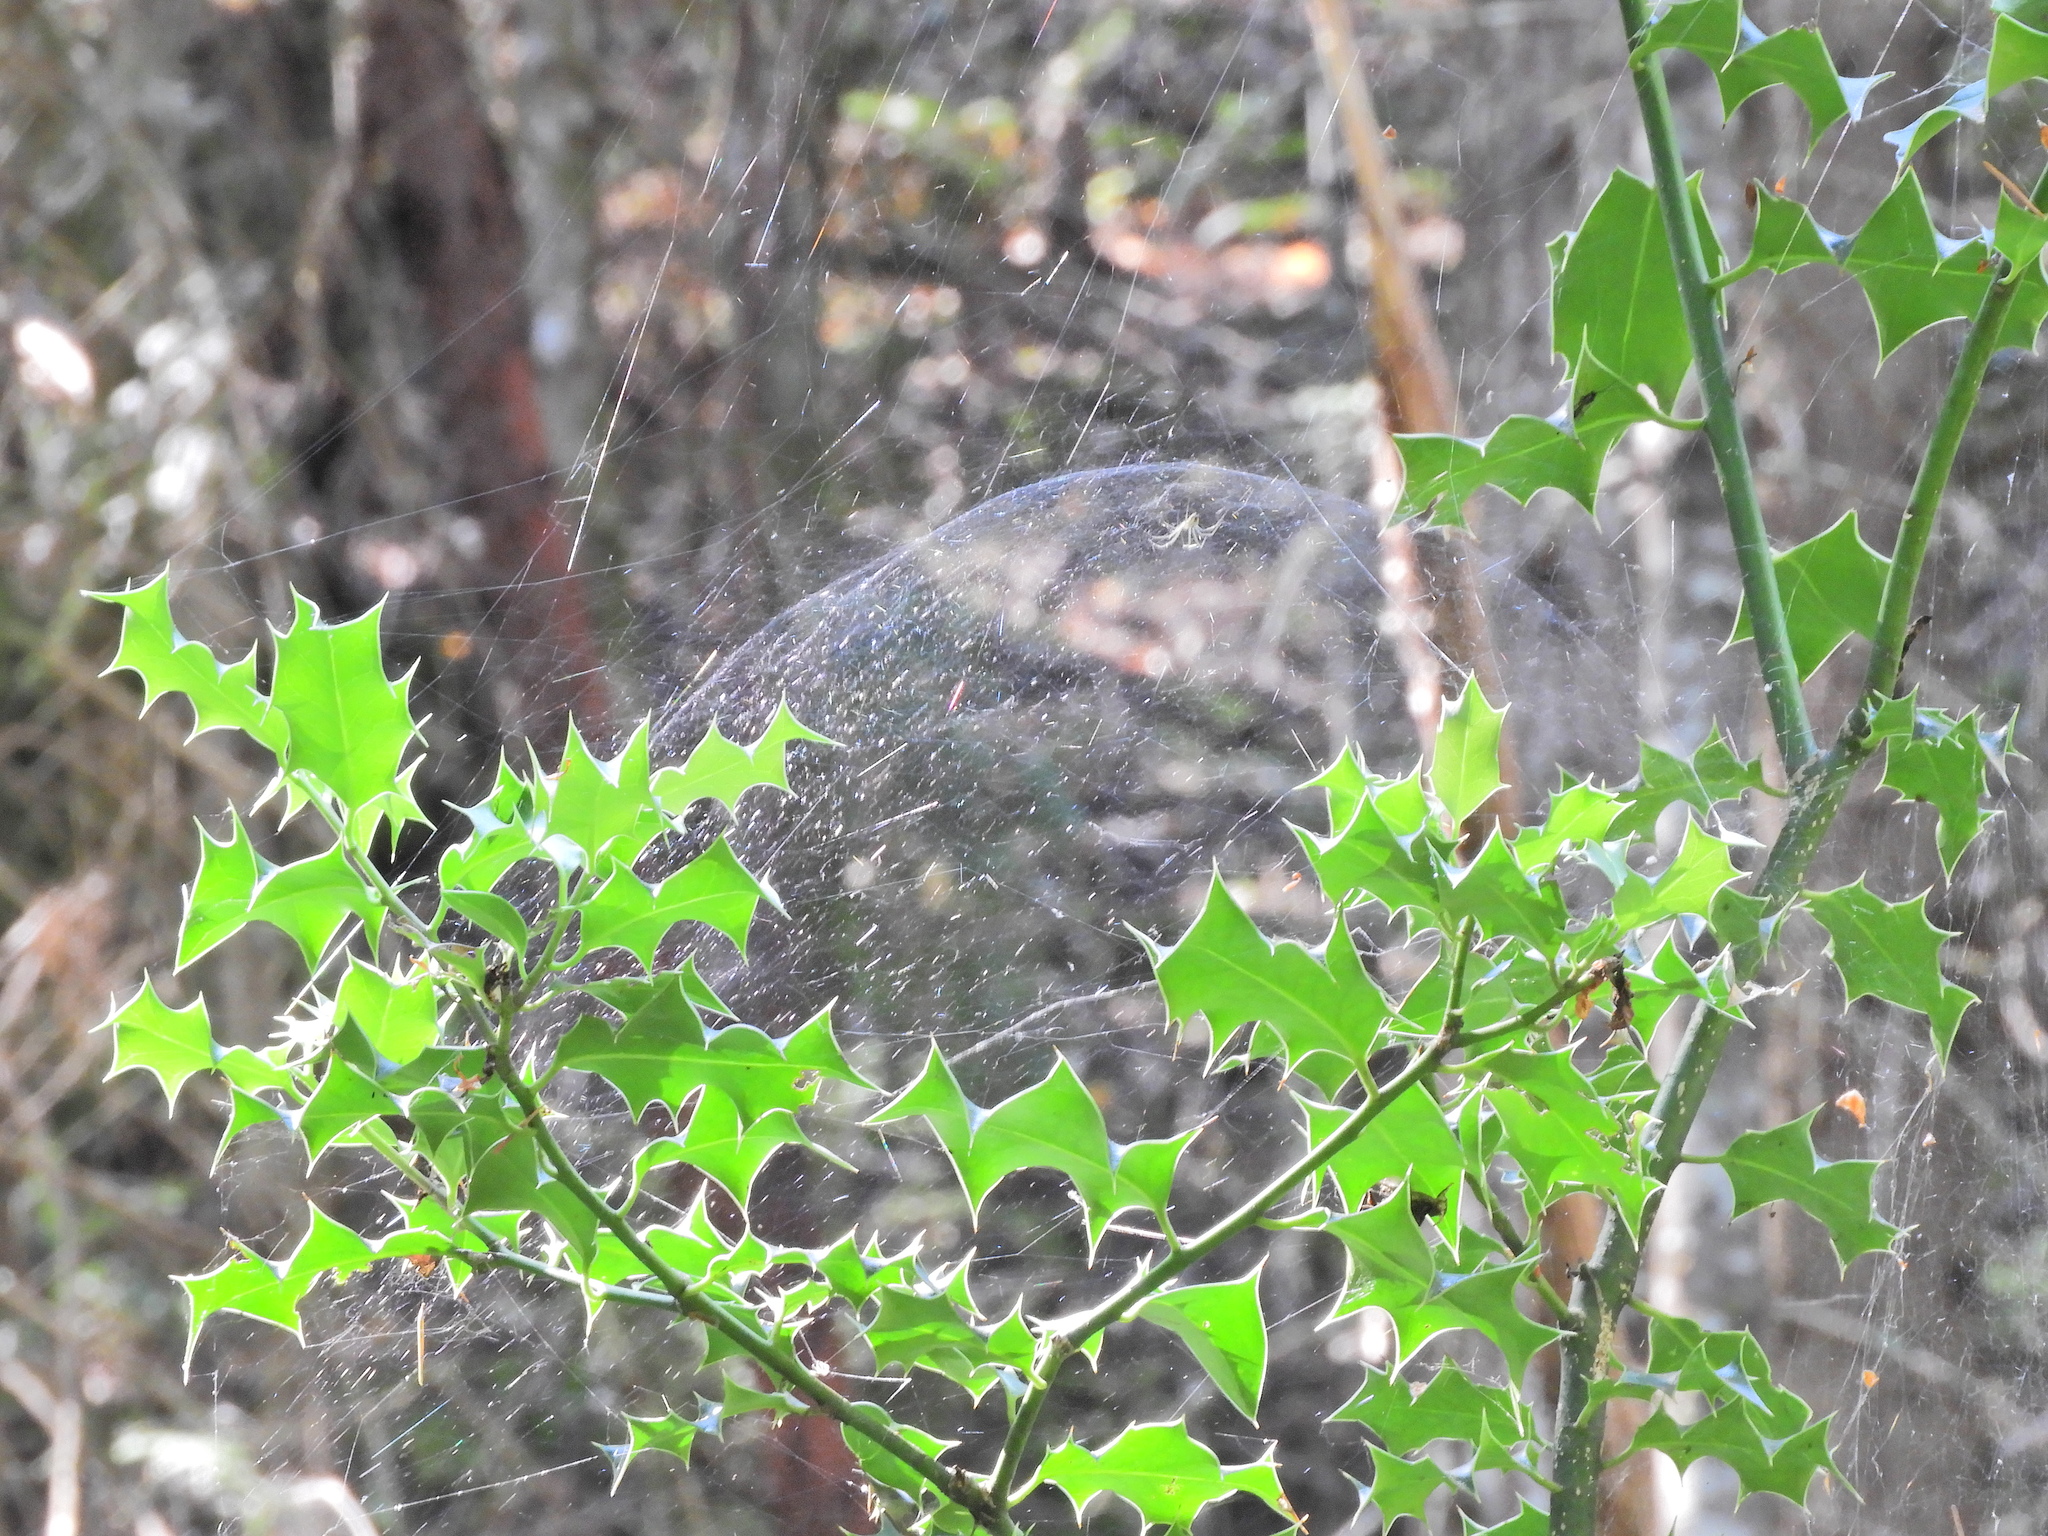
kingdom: Animalia
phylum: Arthropoda
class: Arachnida
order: Araneae
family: Linyphiidae
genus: Neriene
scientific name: Neriene litigiosa
